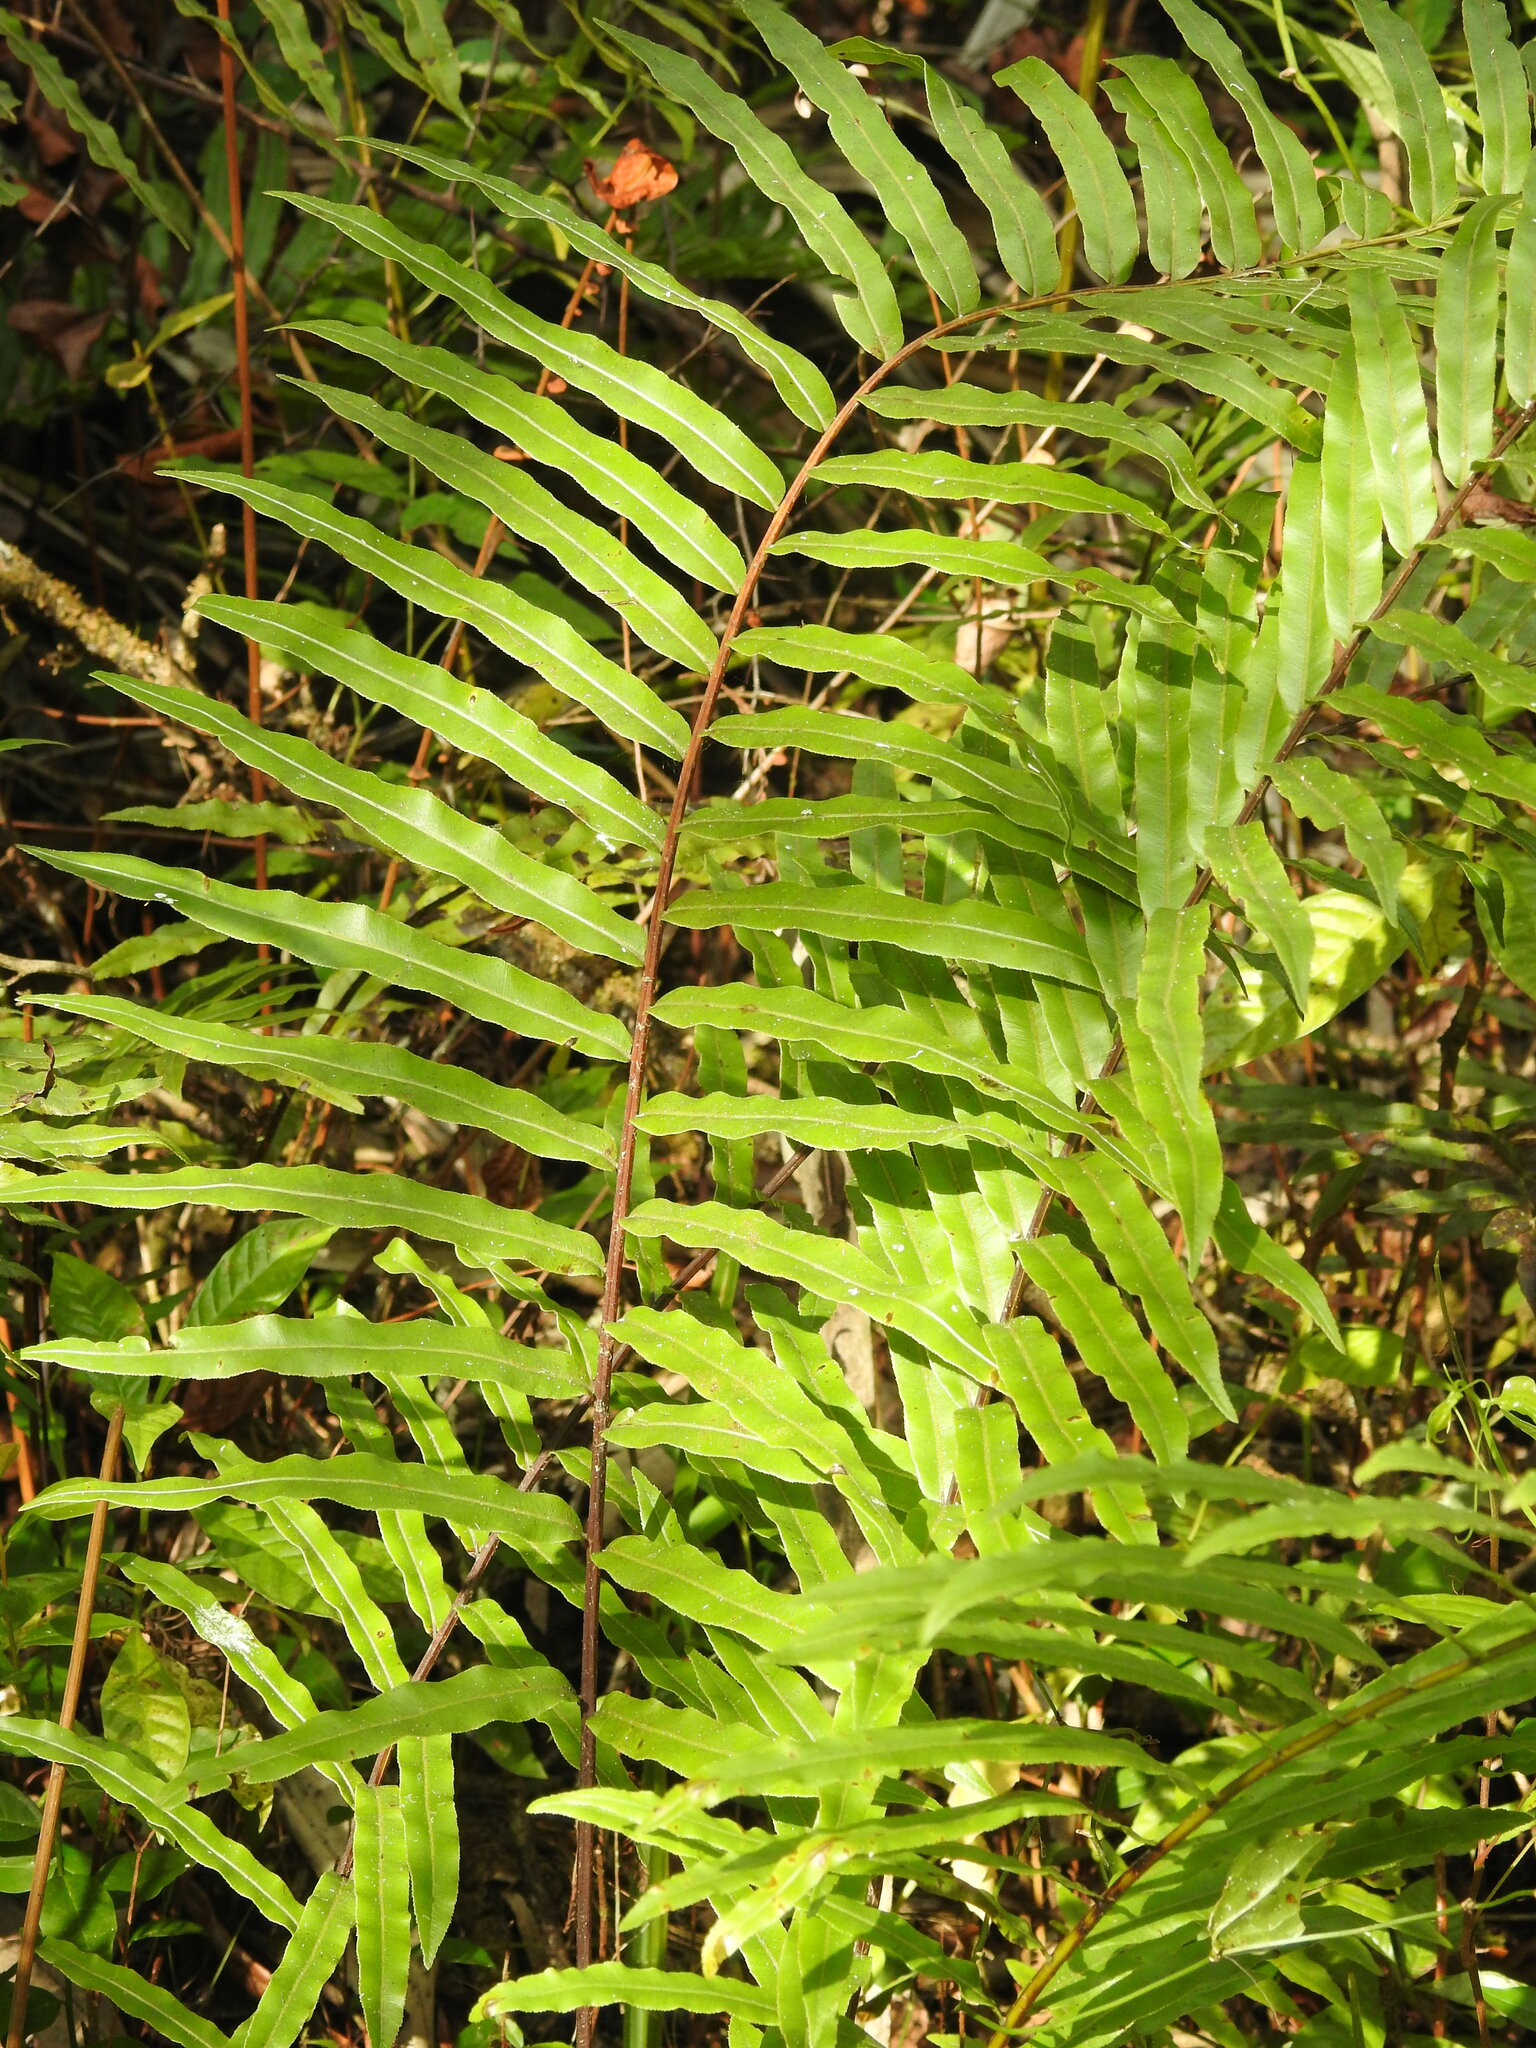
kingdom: Plantae
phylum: Tracheophyta
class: Polypodiopsida
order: Polypodiales
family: Blechnaceae
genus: Telmatoblechnum
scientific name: Telmatoblechnum serrulatum
